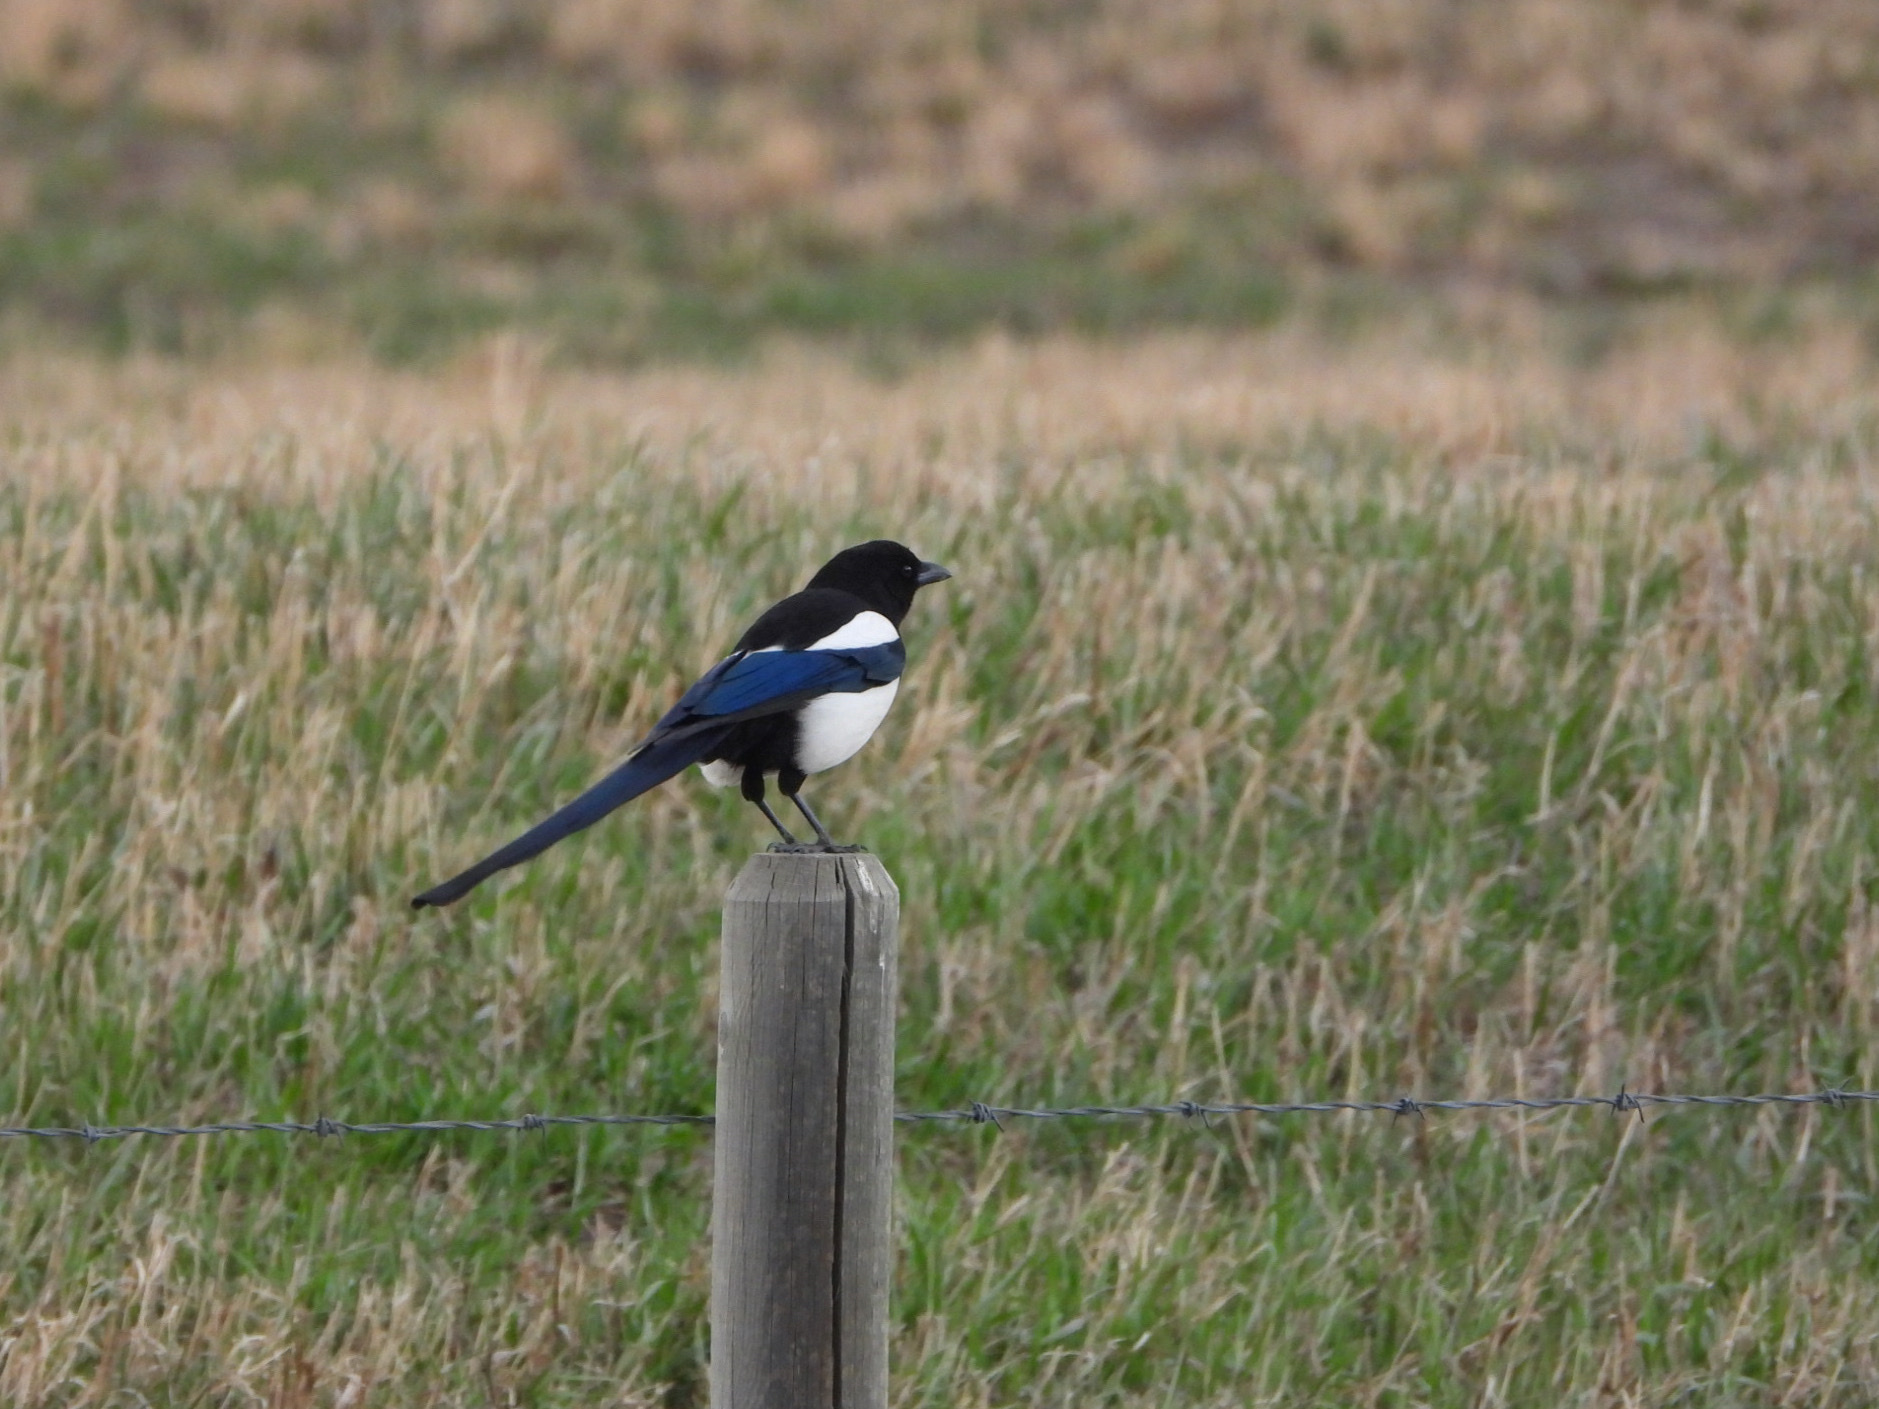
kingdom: Animalia
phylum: Chordata
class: Aves
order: Passeriformes
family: Corvidae
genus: Pica
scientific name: Pica hudsonia
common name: Black-billed magpie
